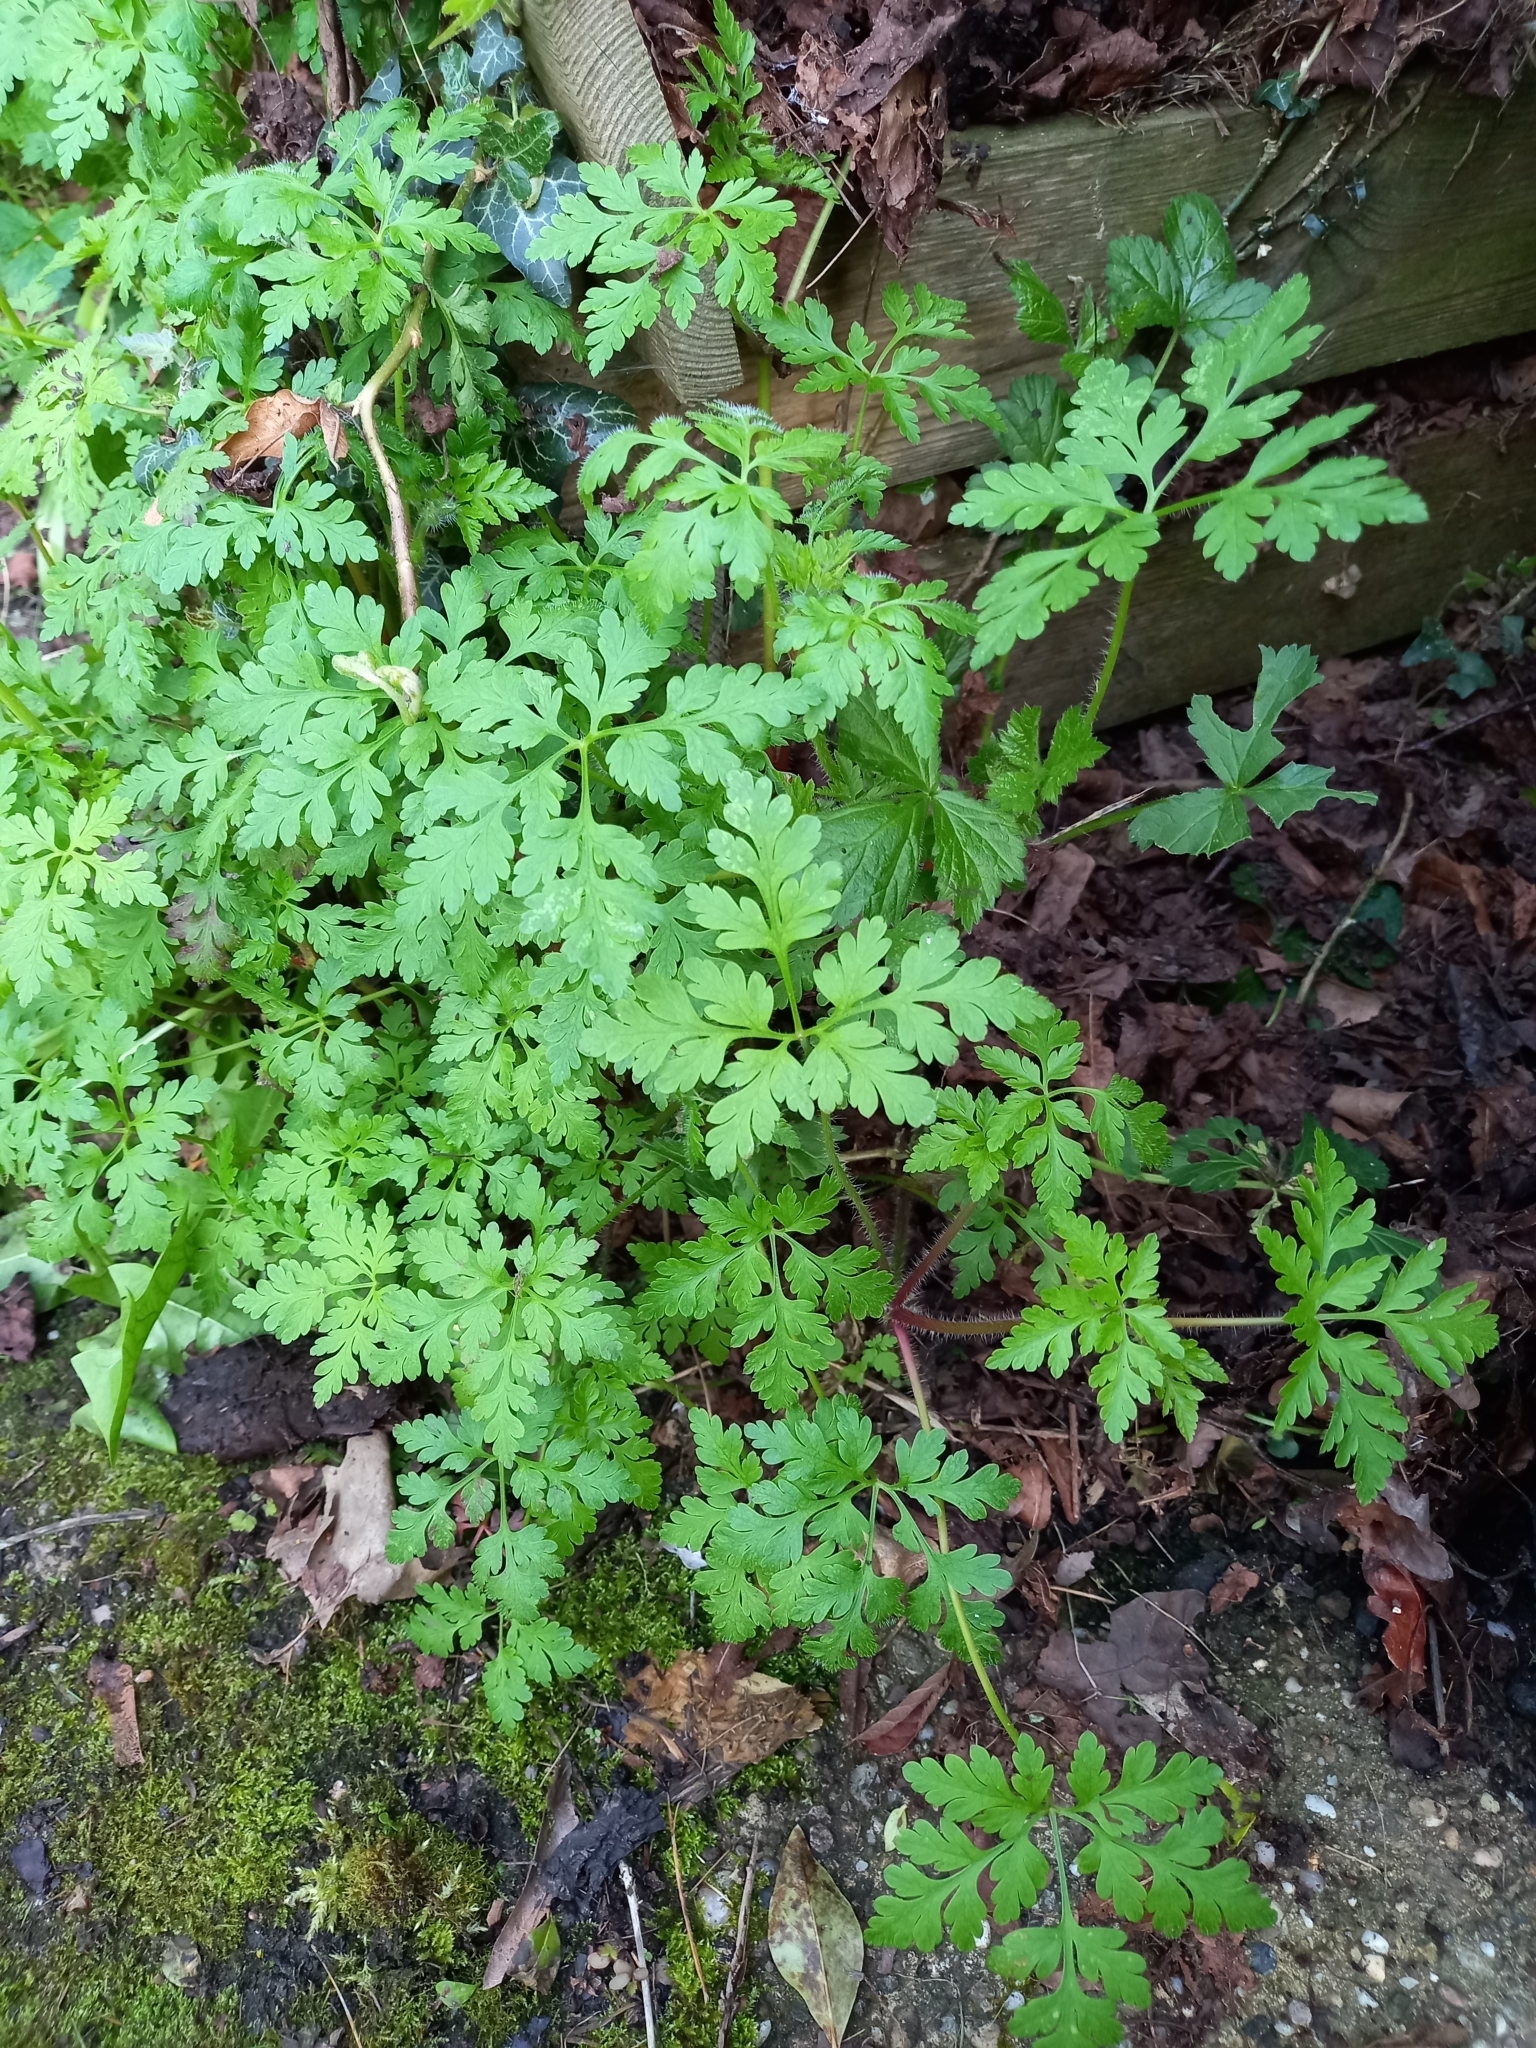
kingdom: Plantae
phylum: Tracheophyta
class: Magnoliopsida
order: Geraniales
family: Geraniaceae
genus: Geranium
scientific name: Geranium robertianum
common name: Herb-robert
